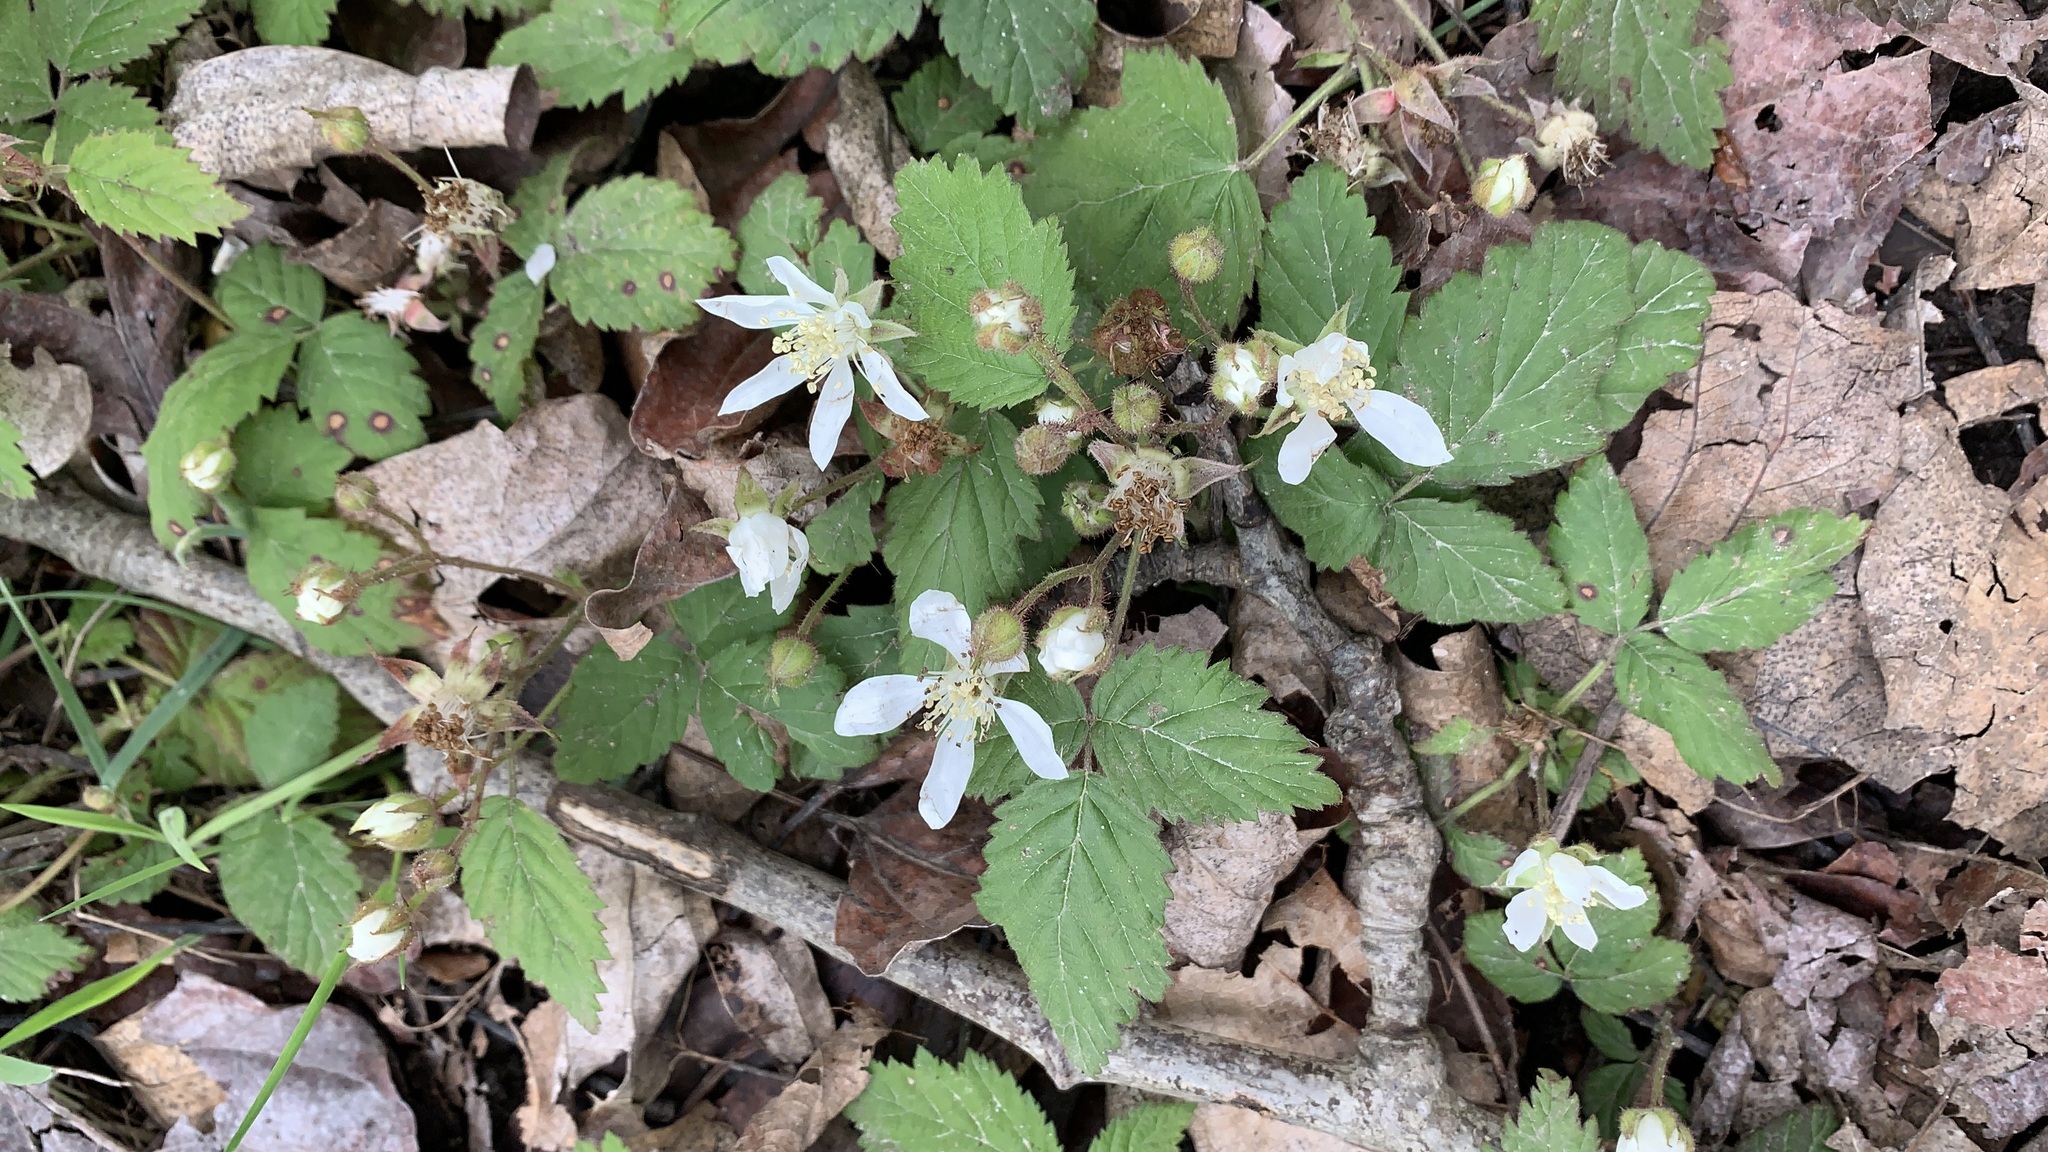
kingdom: Plantae
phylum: Tracheophyta
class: Magnoliopsida
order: Rosales
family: Rosaceae
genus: Rubus
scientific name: Rubus ursinus
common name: Pacific blackberry
